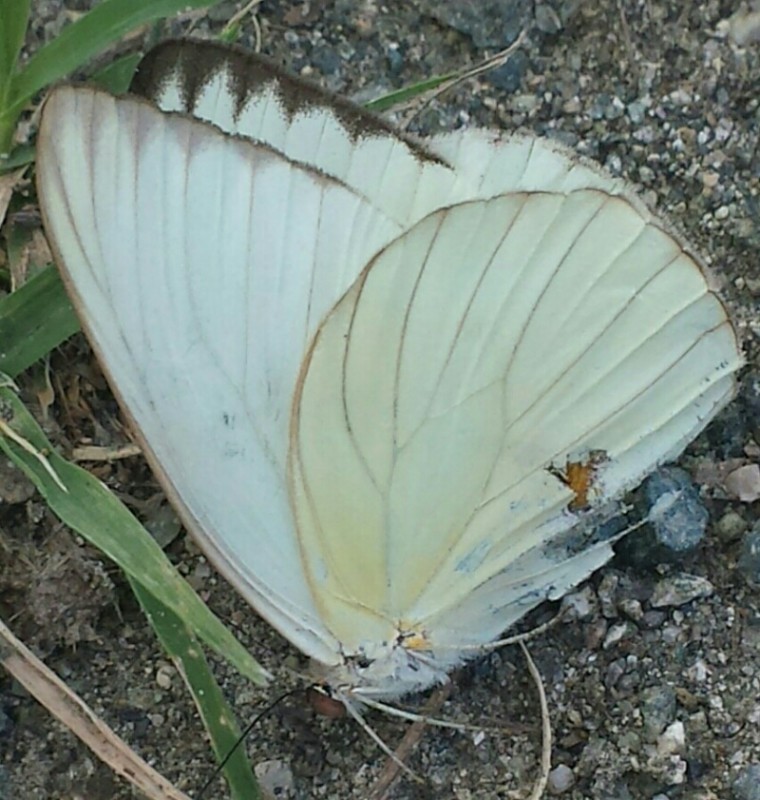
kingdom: Animalia
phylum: Arthropoda
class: Insecta
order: Lepidoptera
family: Pieridae
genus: Ascia
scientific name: Ascia monuste
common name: Great southern white
